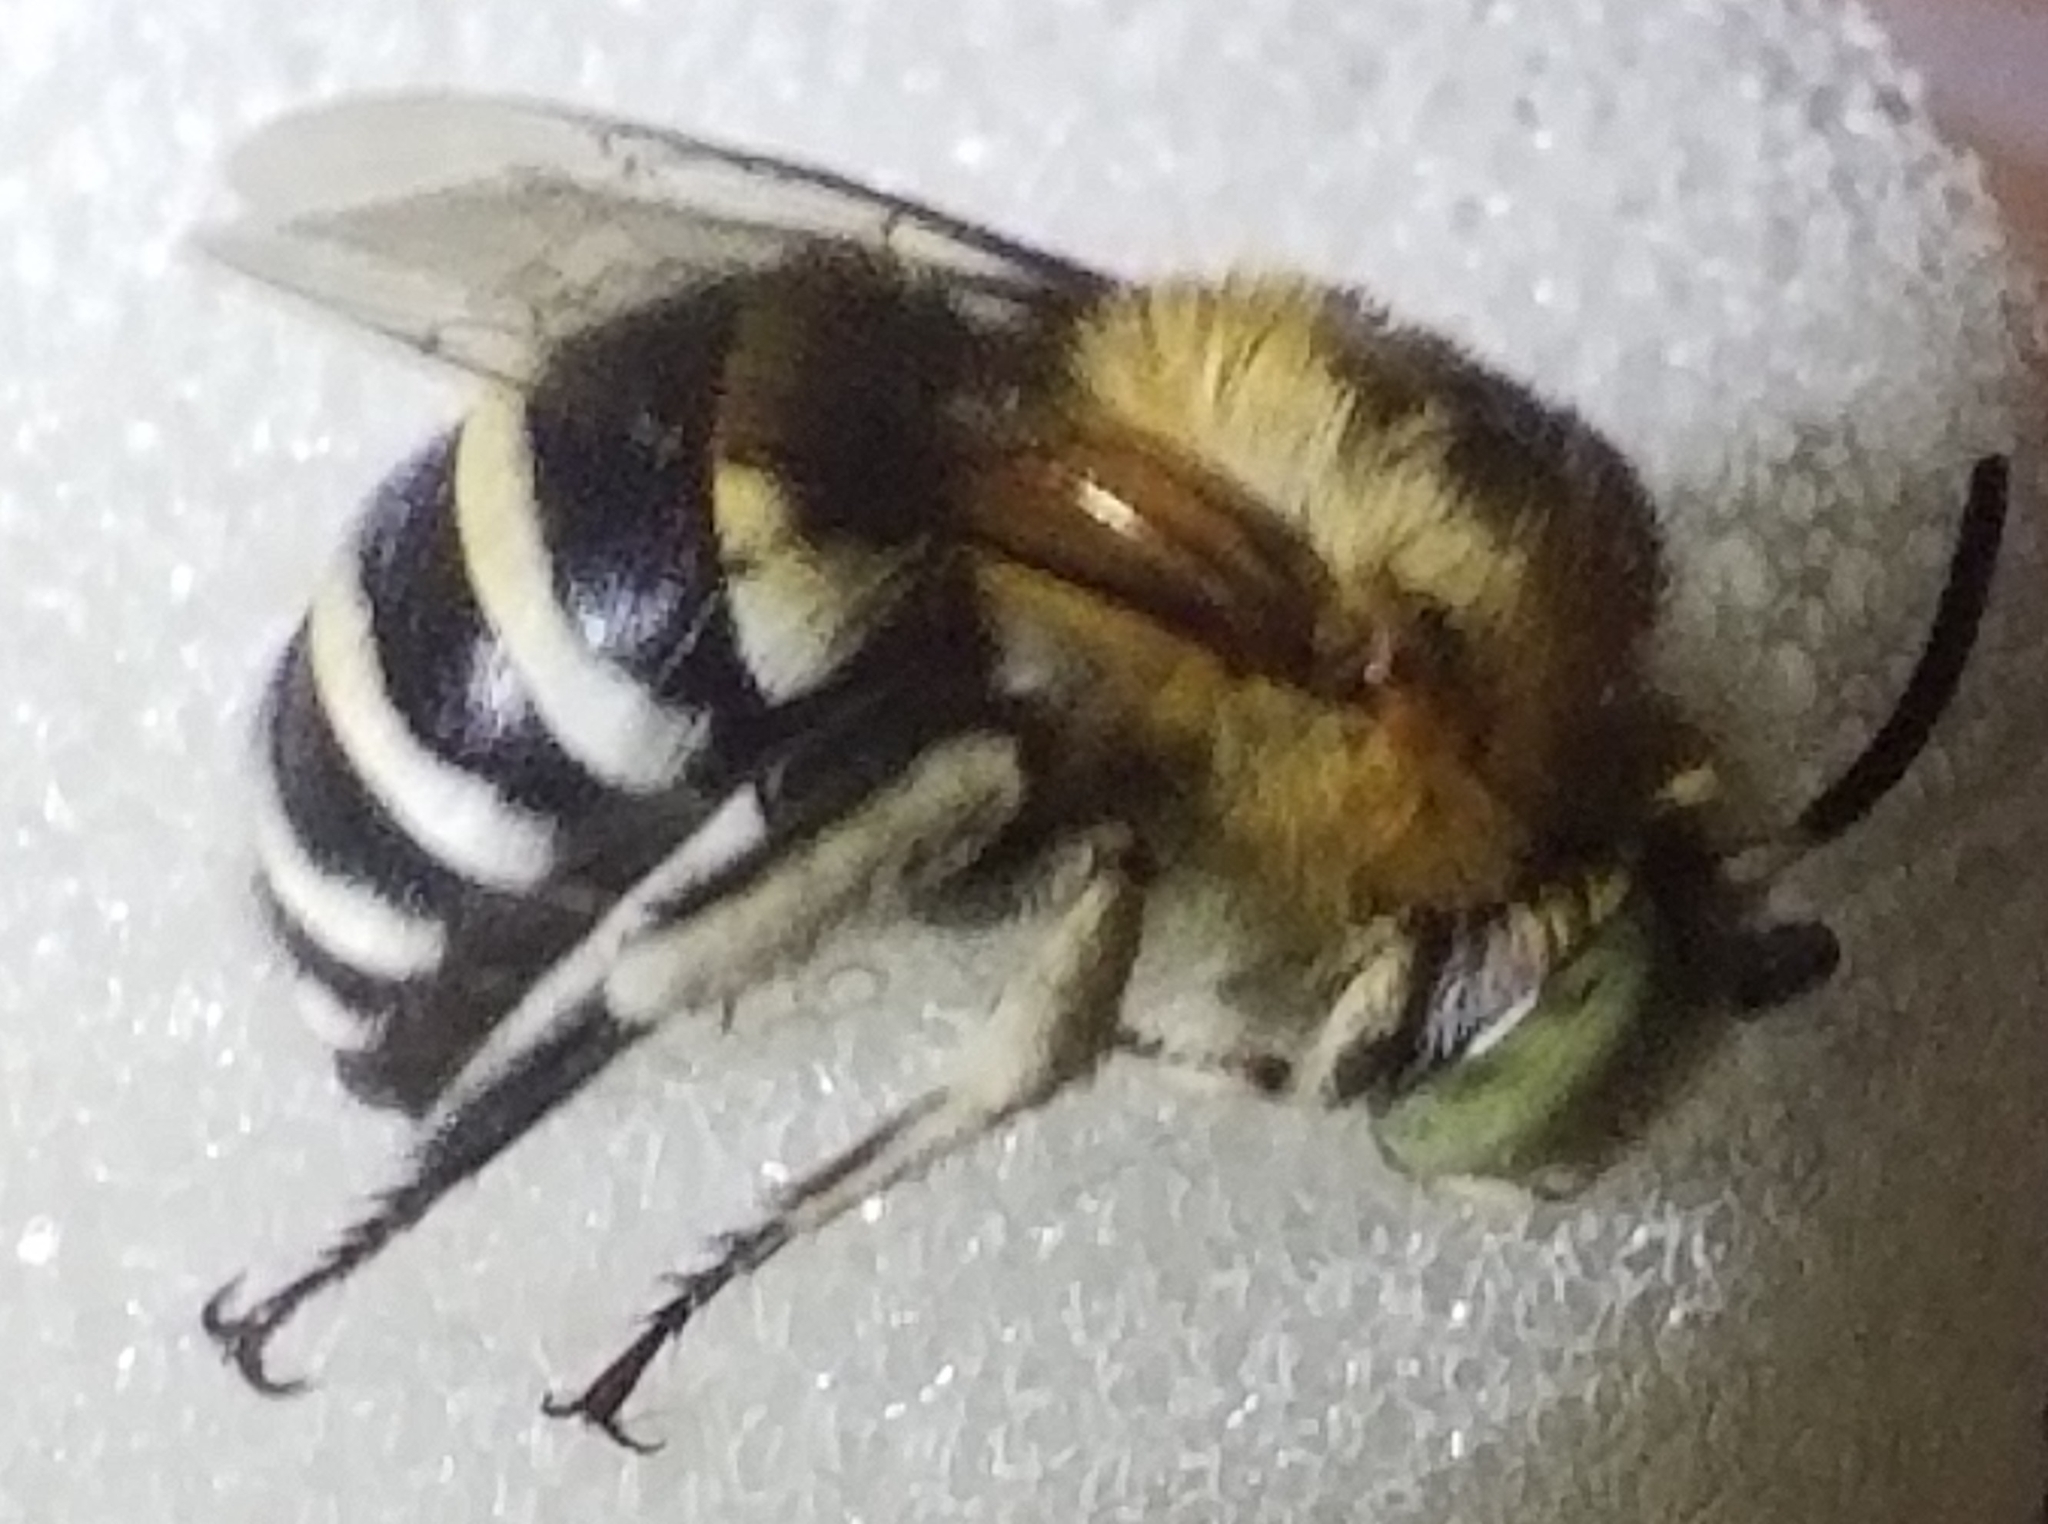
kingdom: Animalia
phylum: Arthropoda
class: Insecta
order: Hymenoptera
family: Apidae
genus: Amegilla
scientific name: Amegilla quadrifasciata
